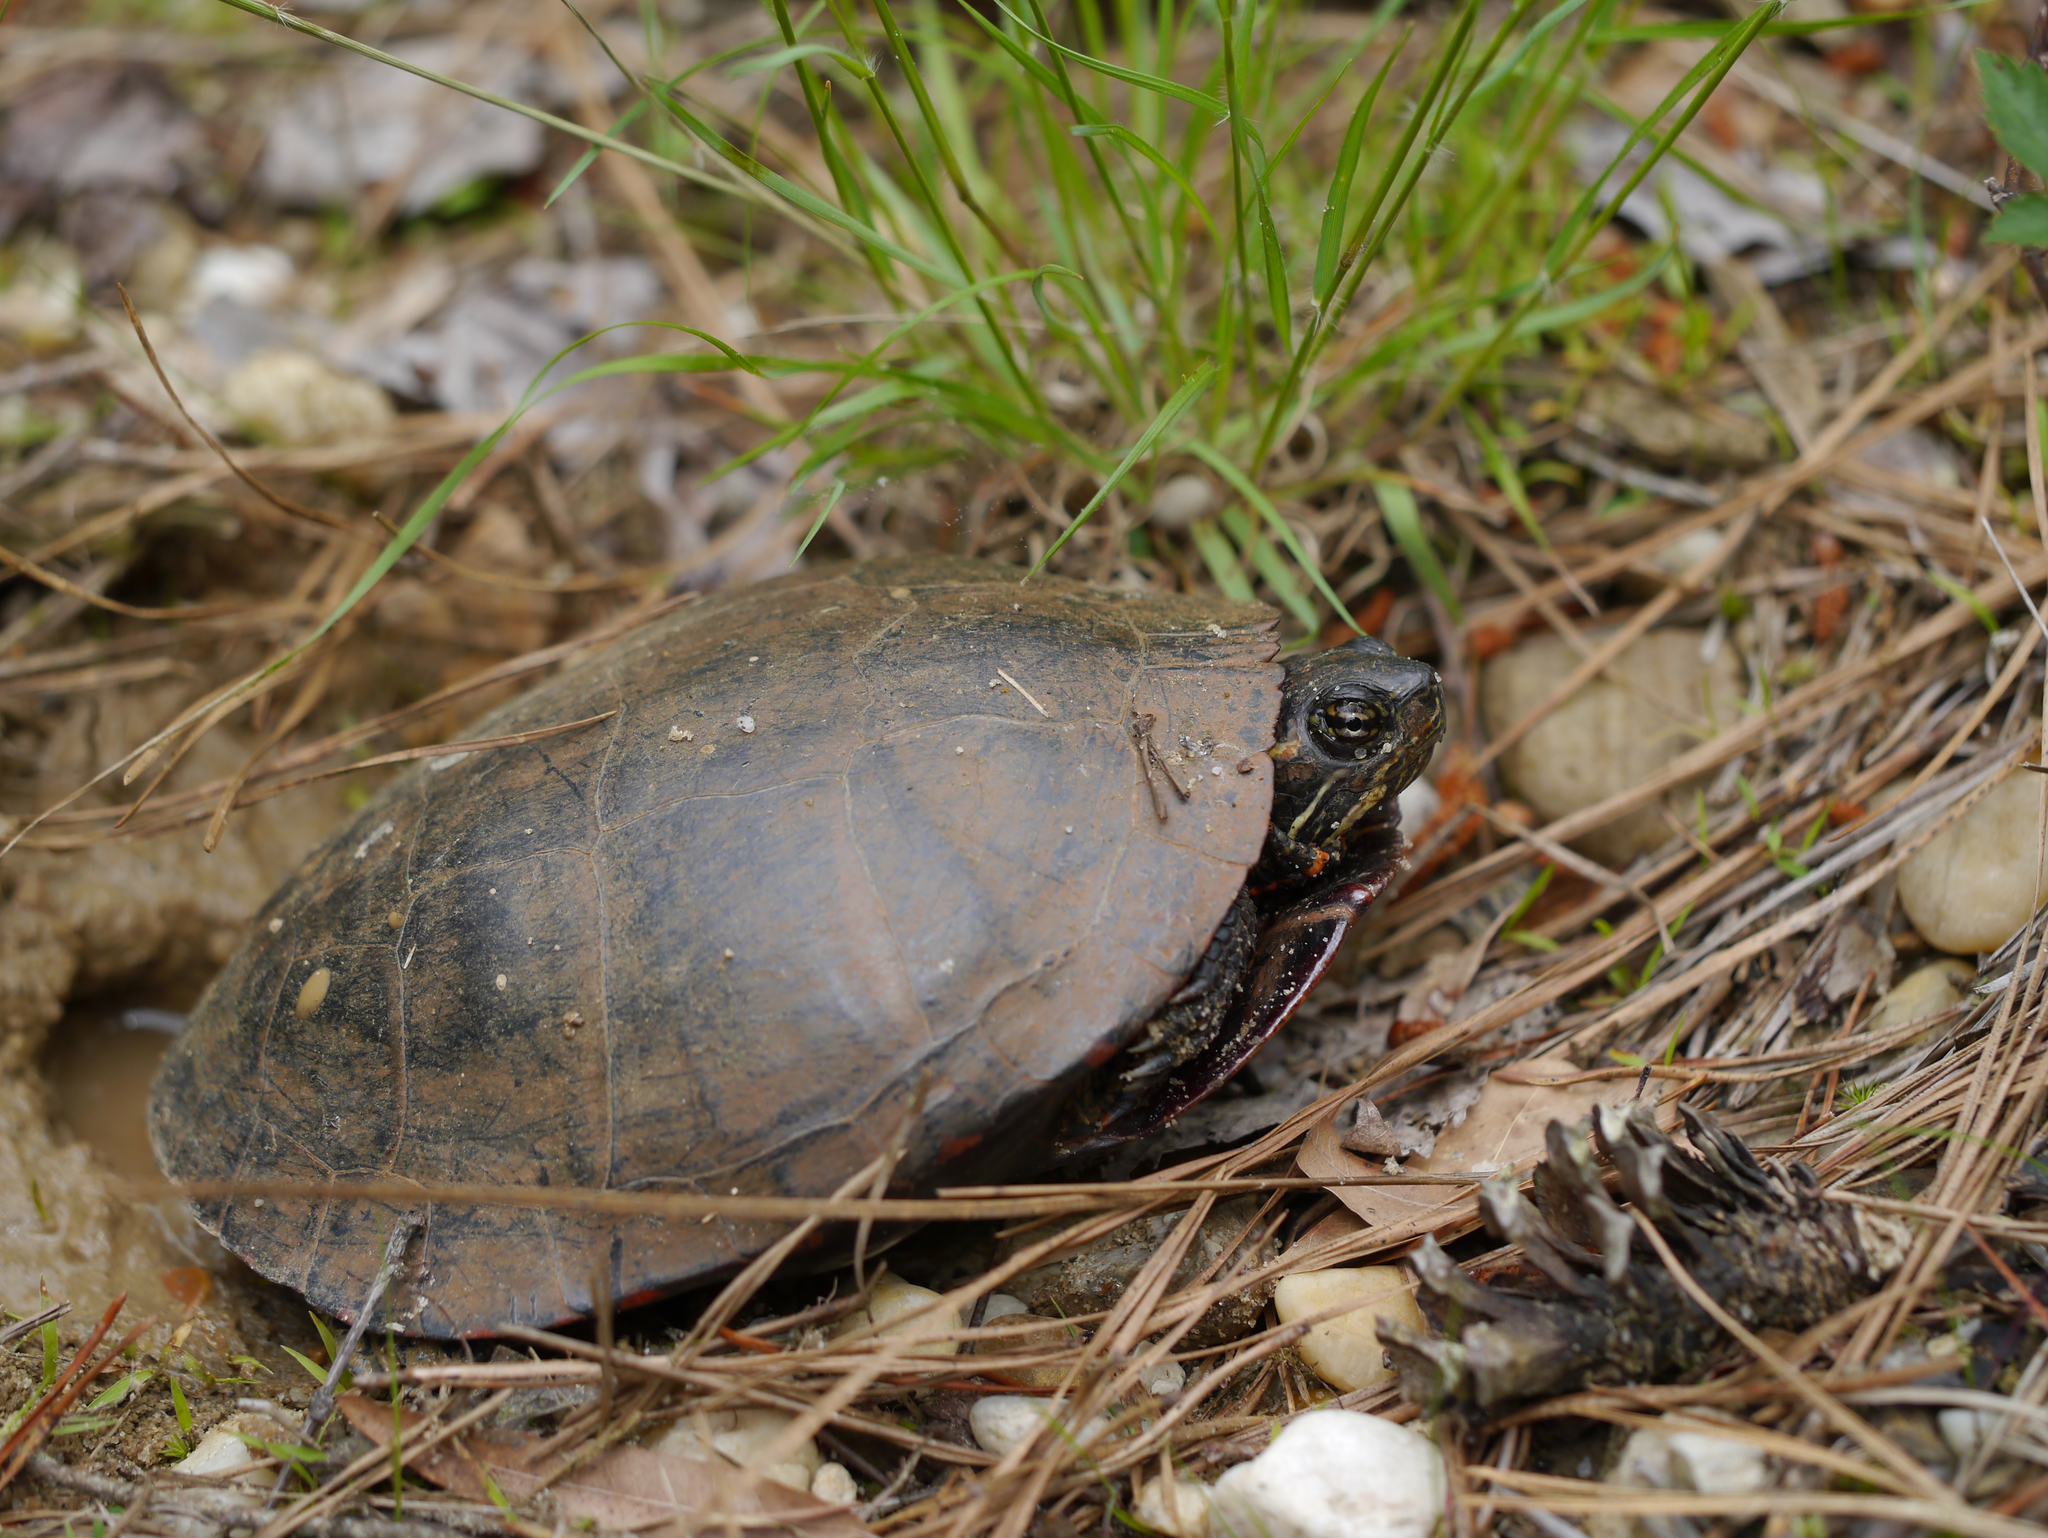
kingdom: Animalia
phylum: Chordata
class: Testudines
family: Emydidae
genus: Chrysemys
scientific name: Chrysemys picta
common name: Painted turtle
